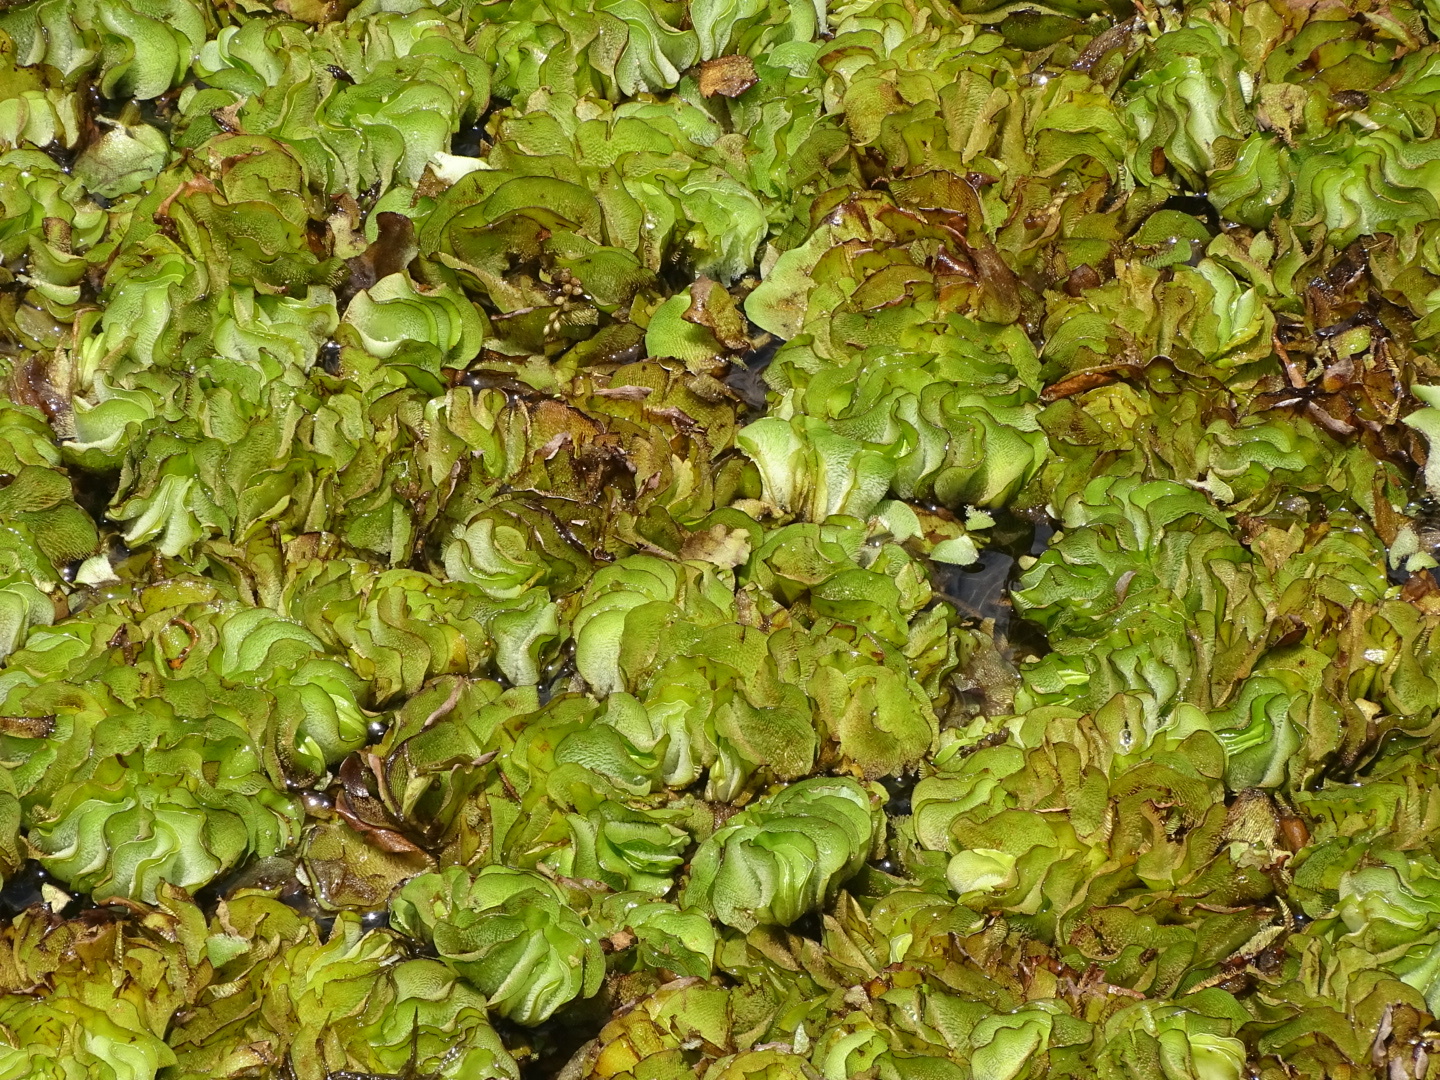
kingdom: Plantae
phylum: Tracheophyta
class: Polypodiopsida
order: Salviniales
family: Salviniaceae
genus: Salvinia
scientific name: Salvinia molesta
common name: Kariba weed
